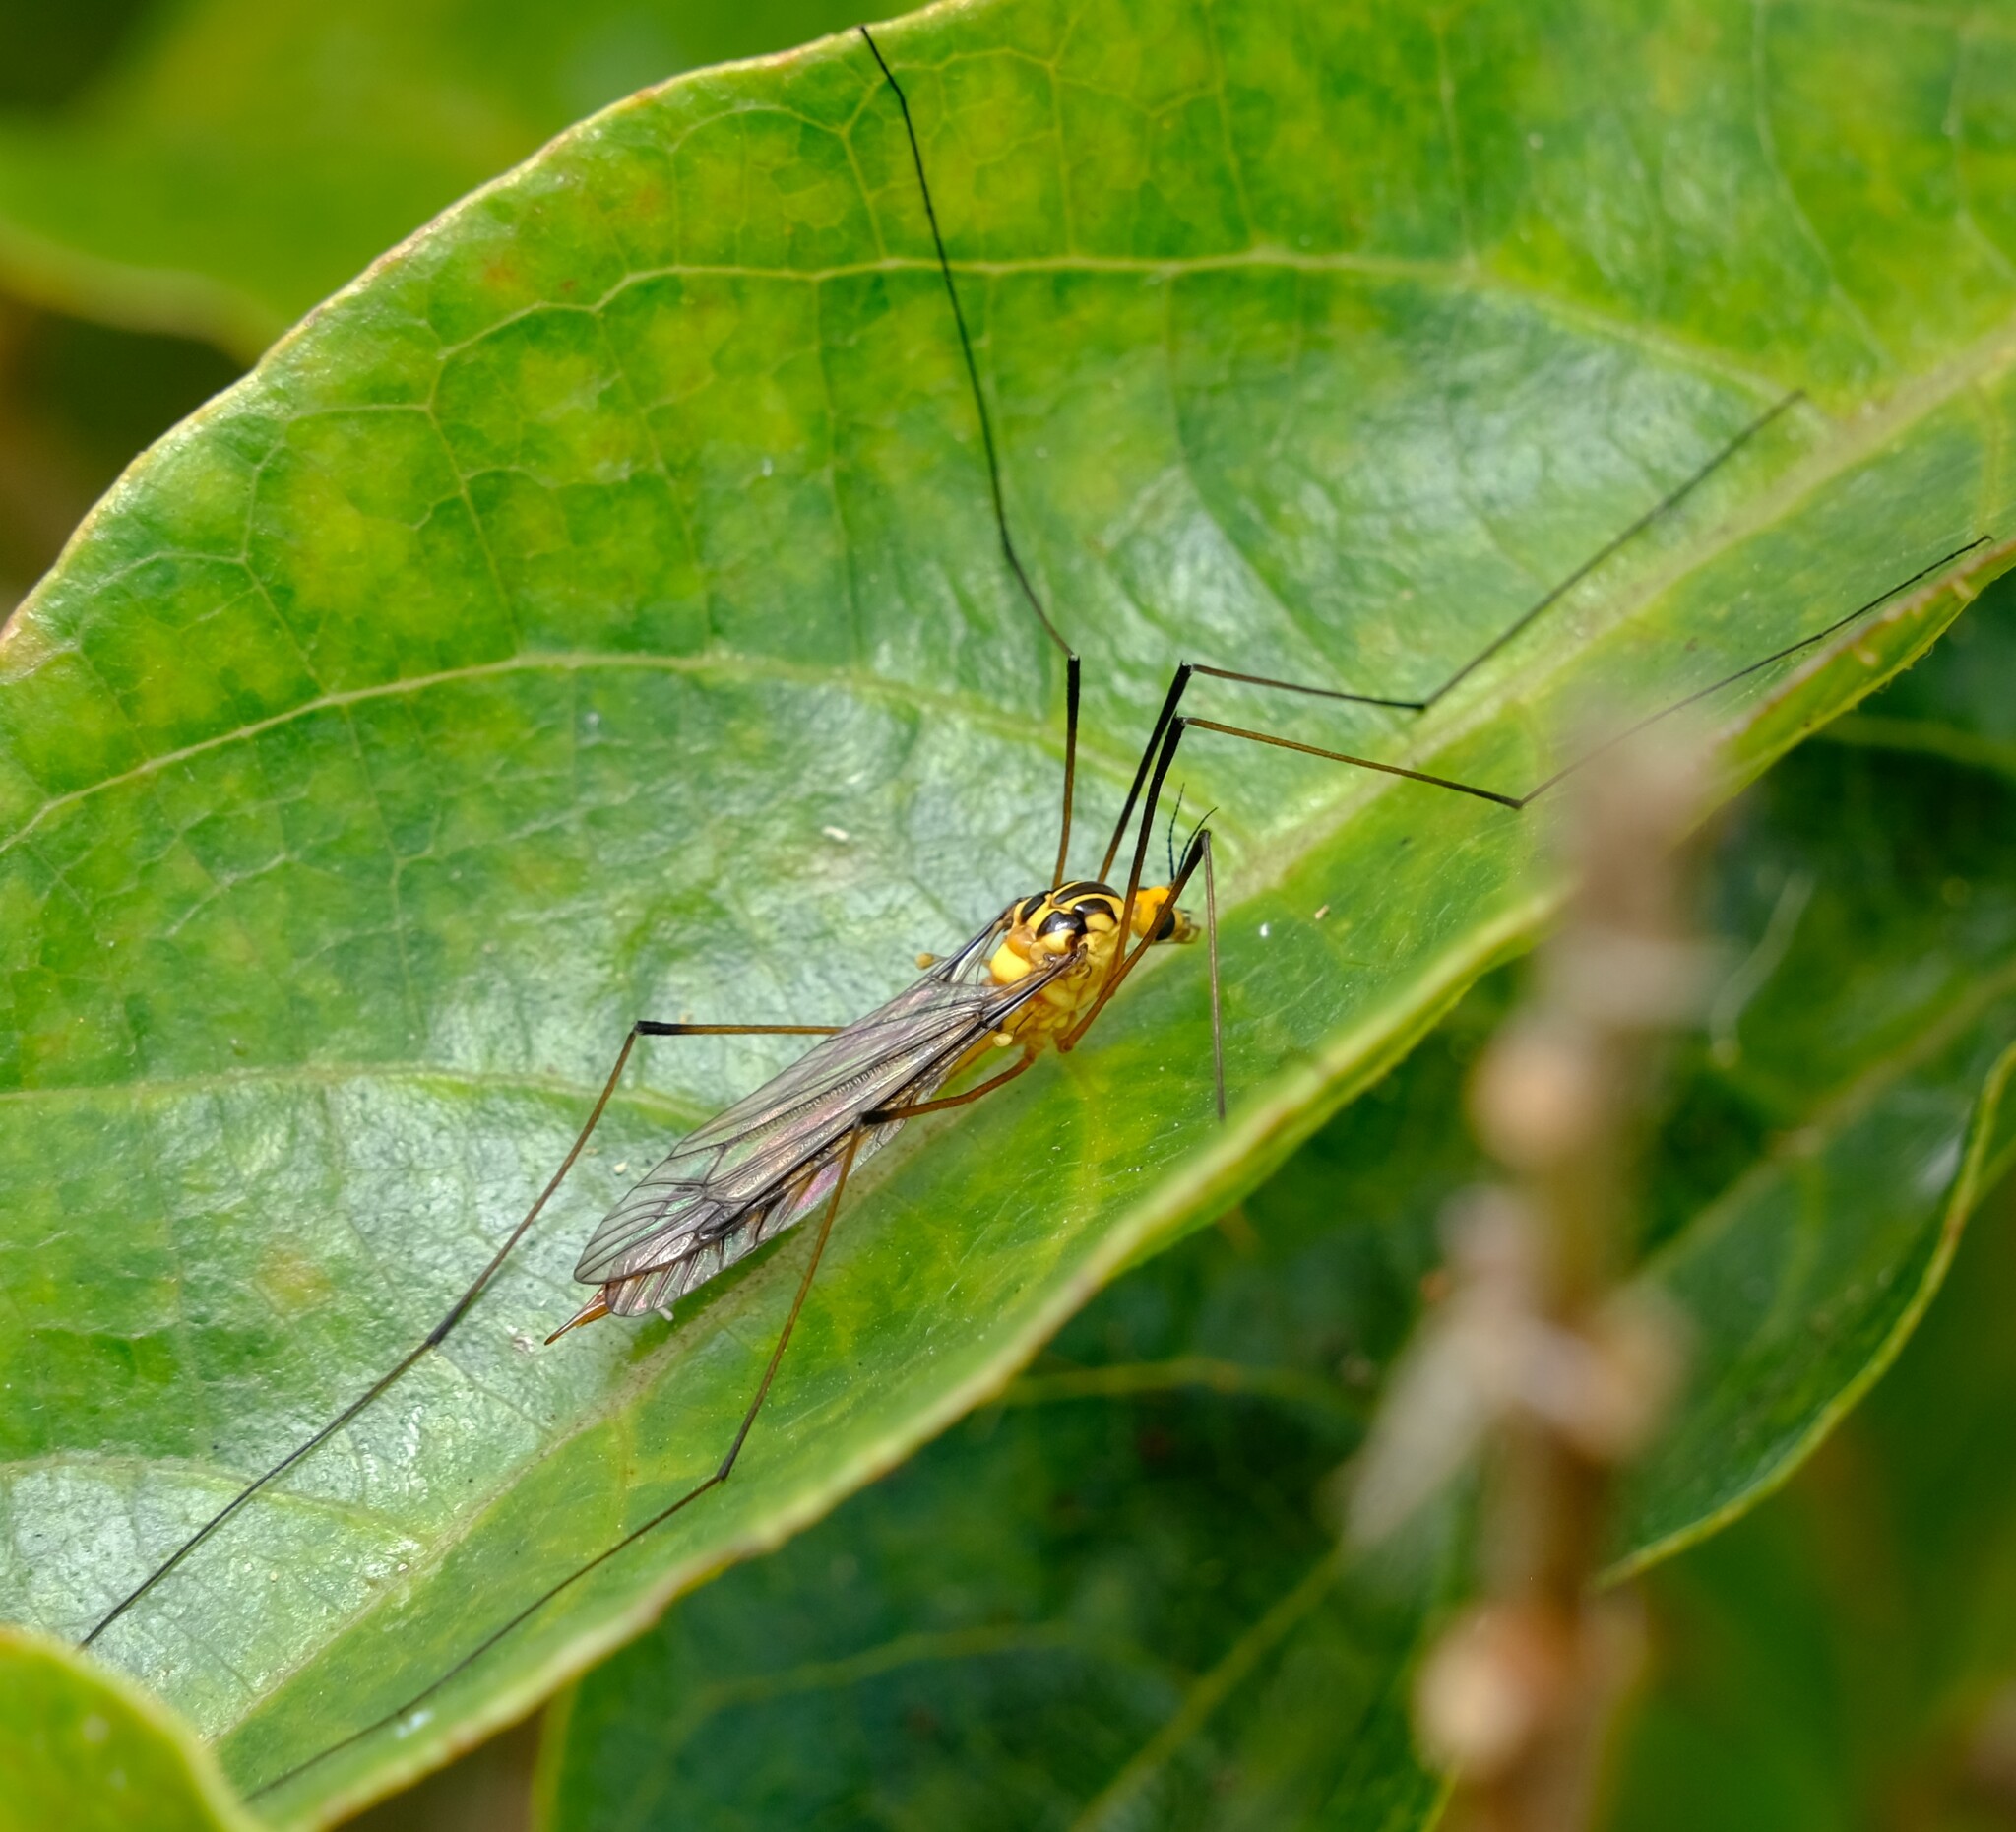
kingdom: Animalia
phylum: Arthropoda
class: Insecta
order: Diptera
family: Tipulidae
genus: Nephrotoma
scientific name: Nephrotoma australasiae
